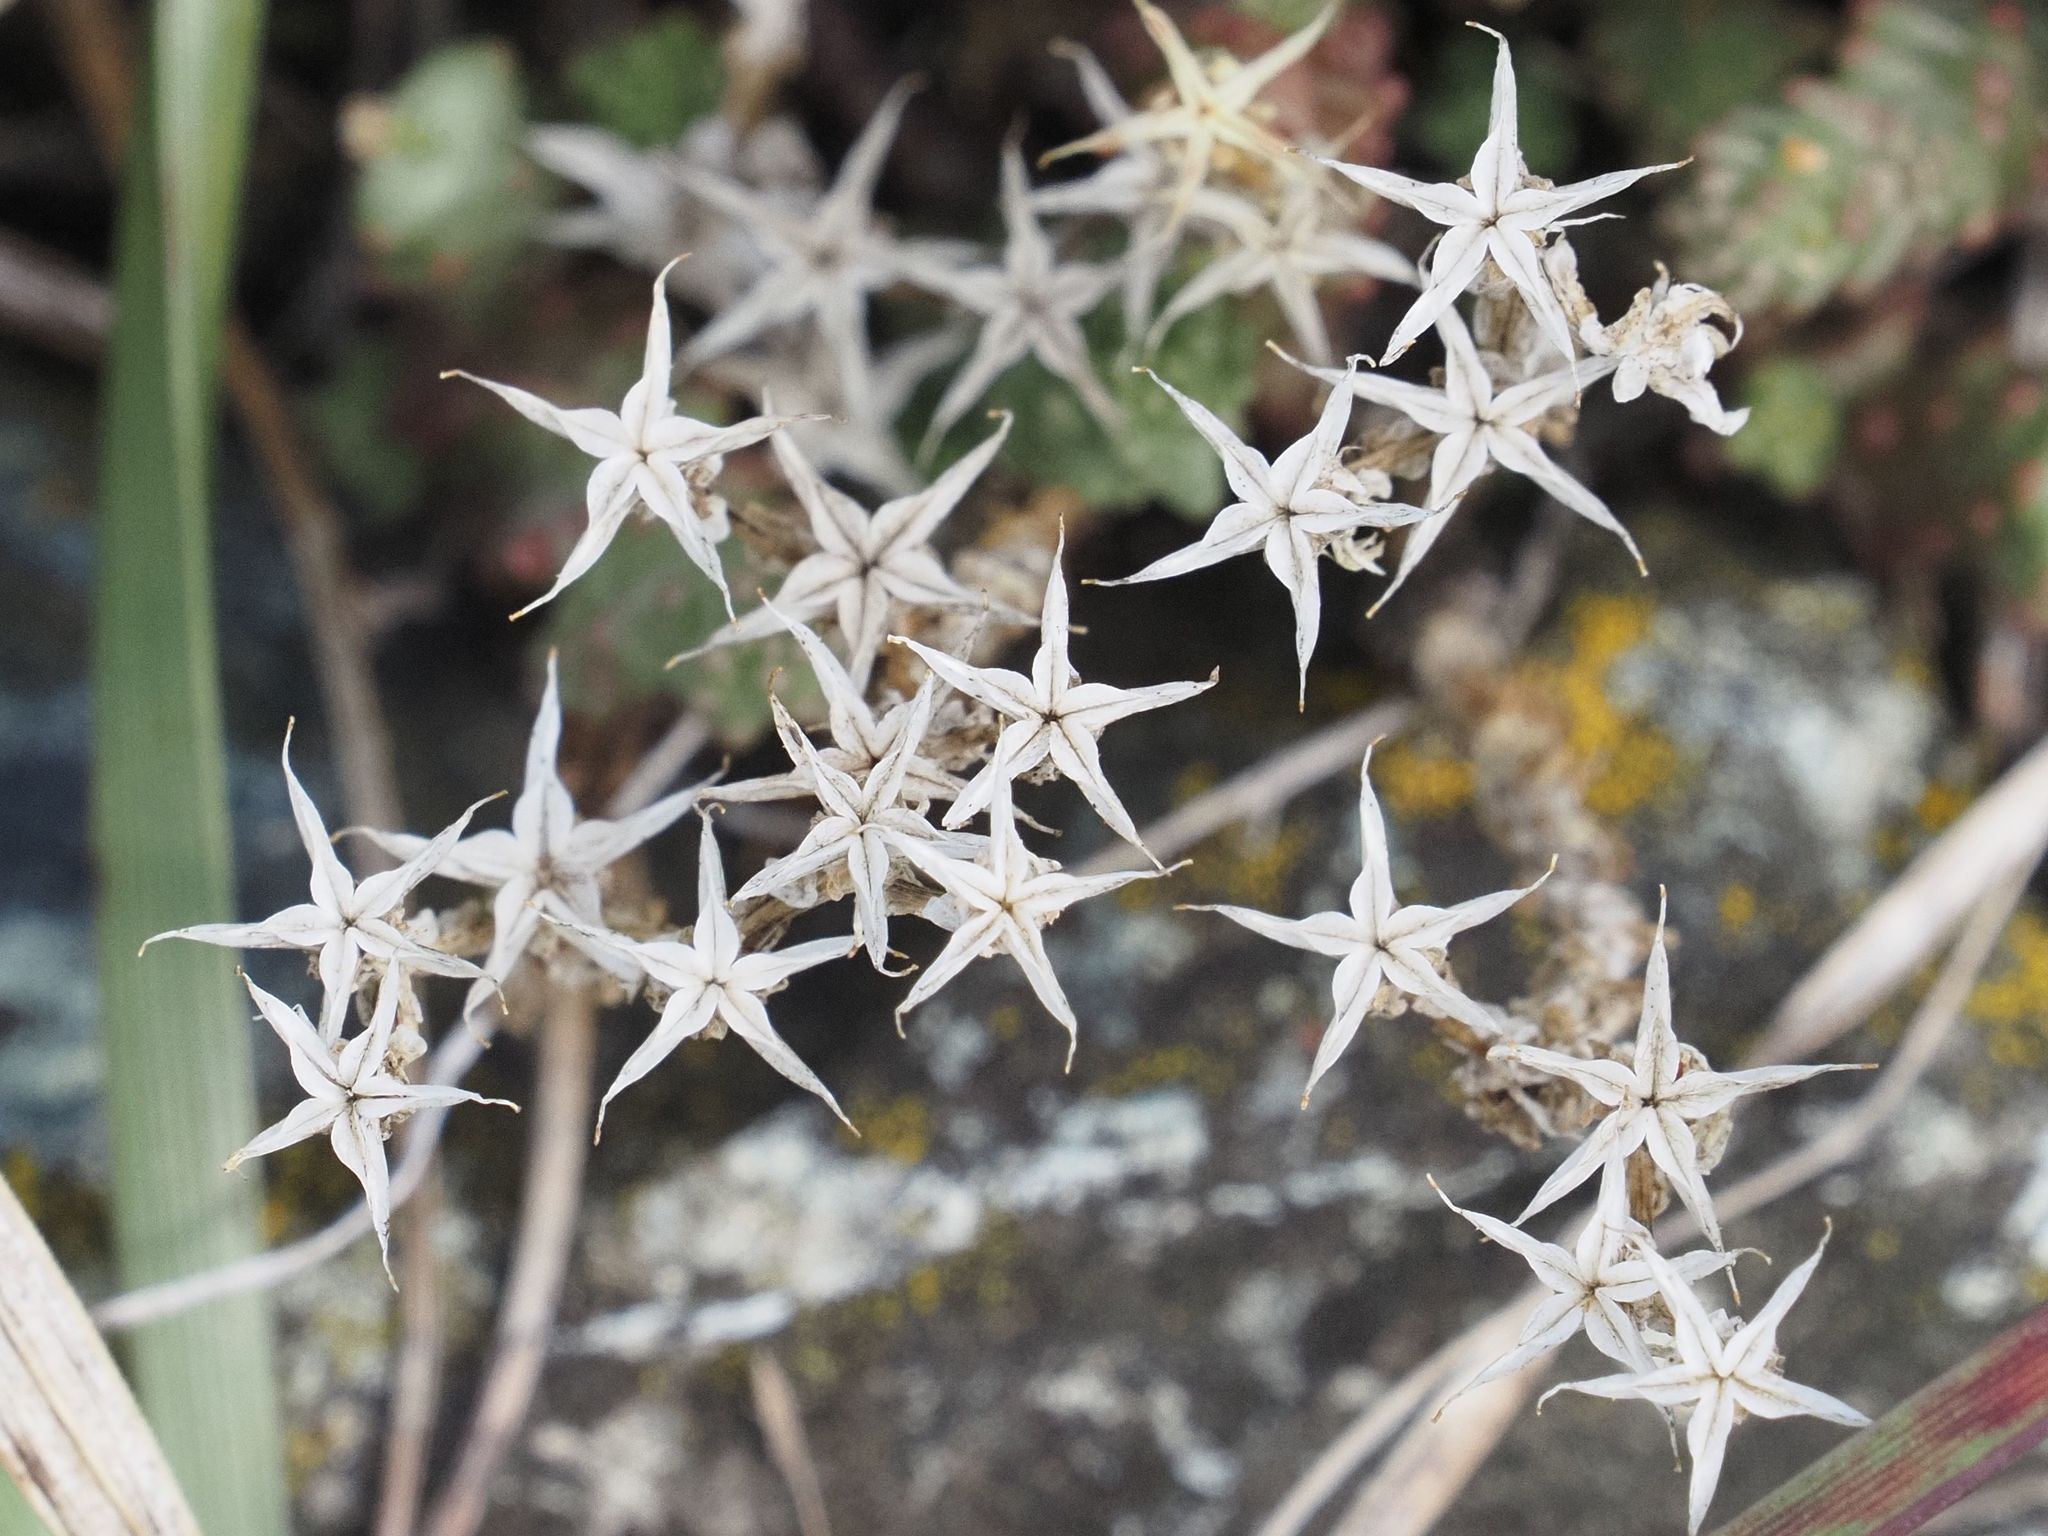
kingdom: Plantae
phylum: Tracheophyta
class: Magnoliopsida
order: Saxifragales
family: Crassulaceae
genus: Sedum
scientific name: Sedum acre
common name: Biting stonecrop
